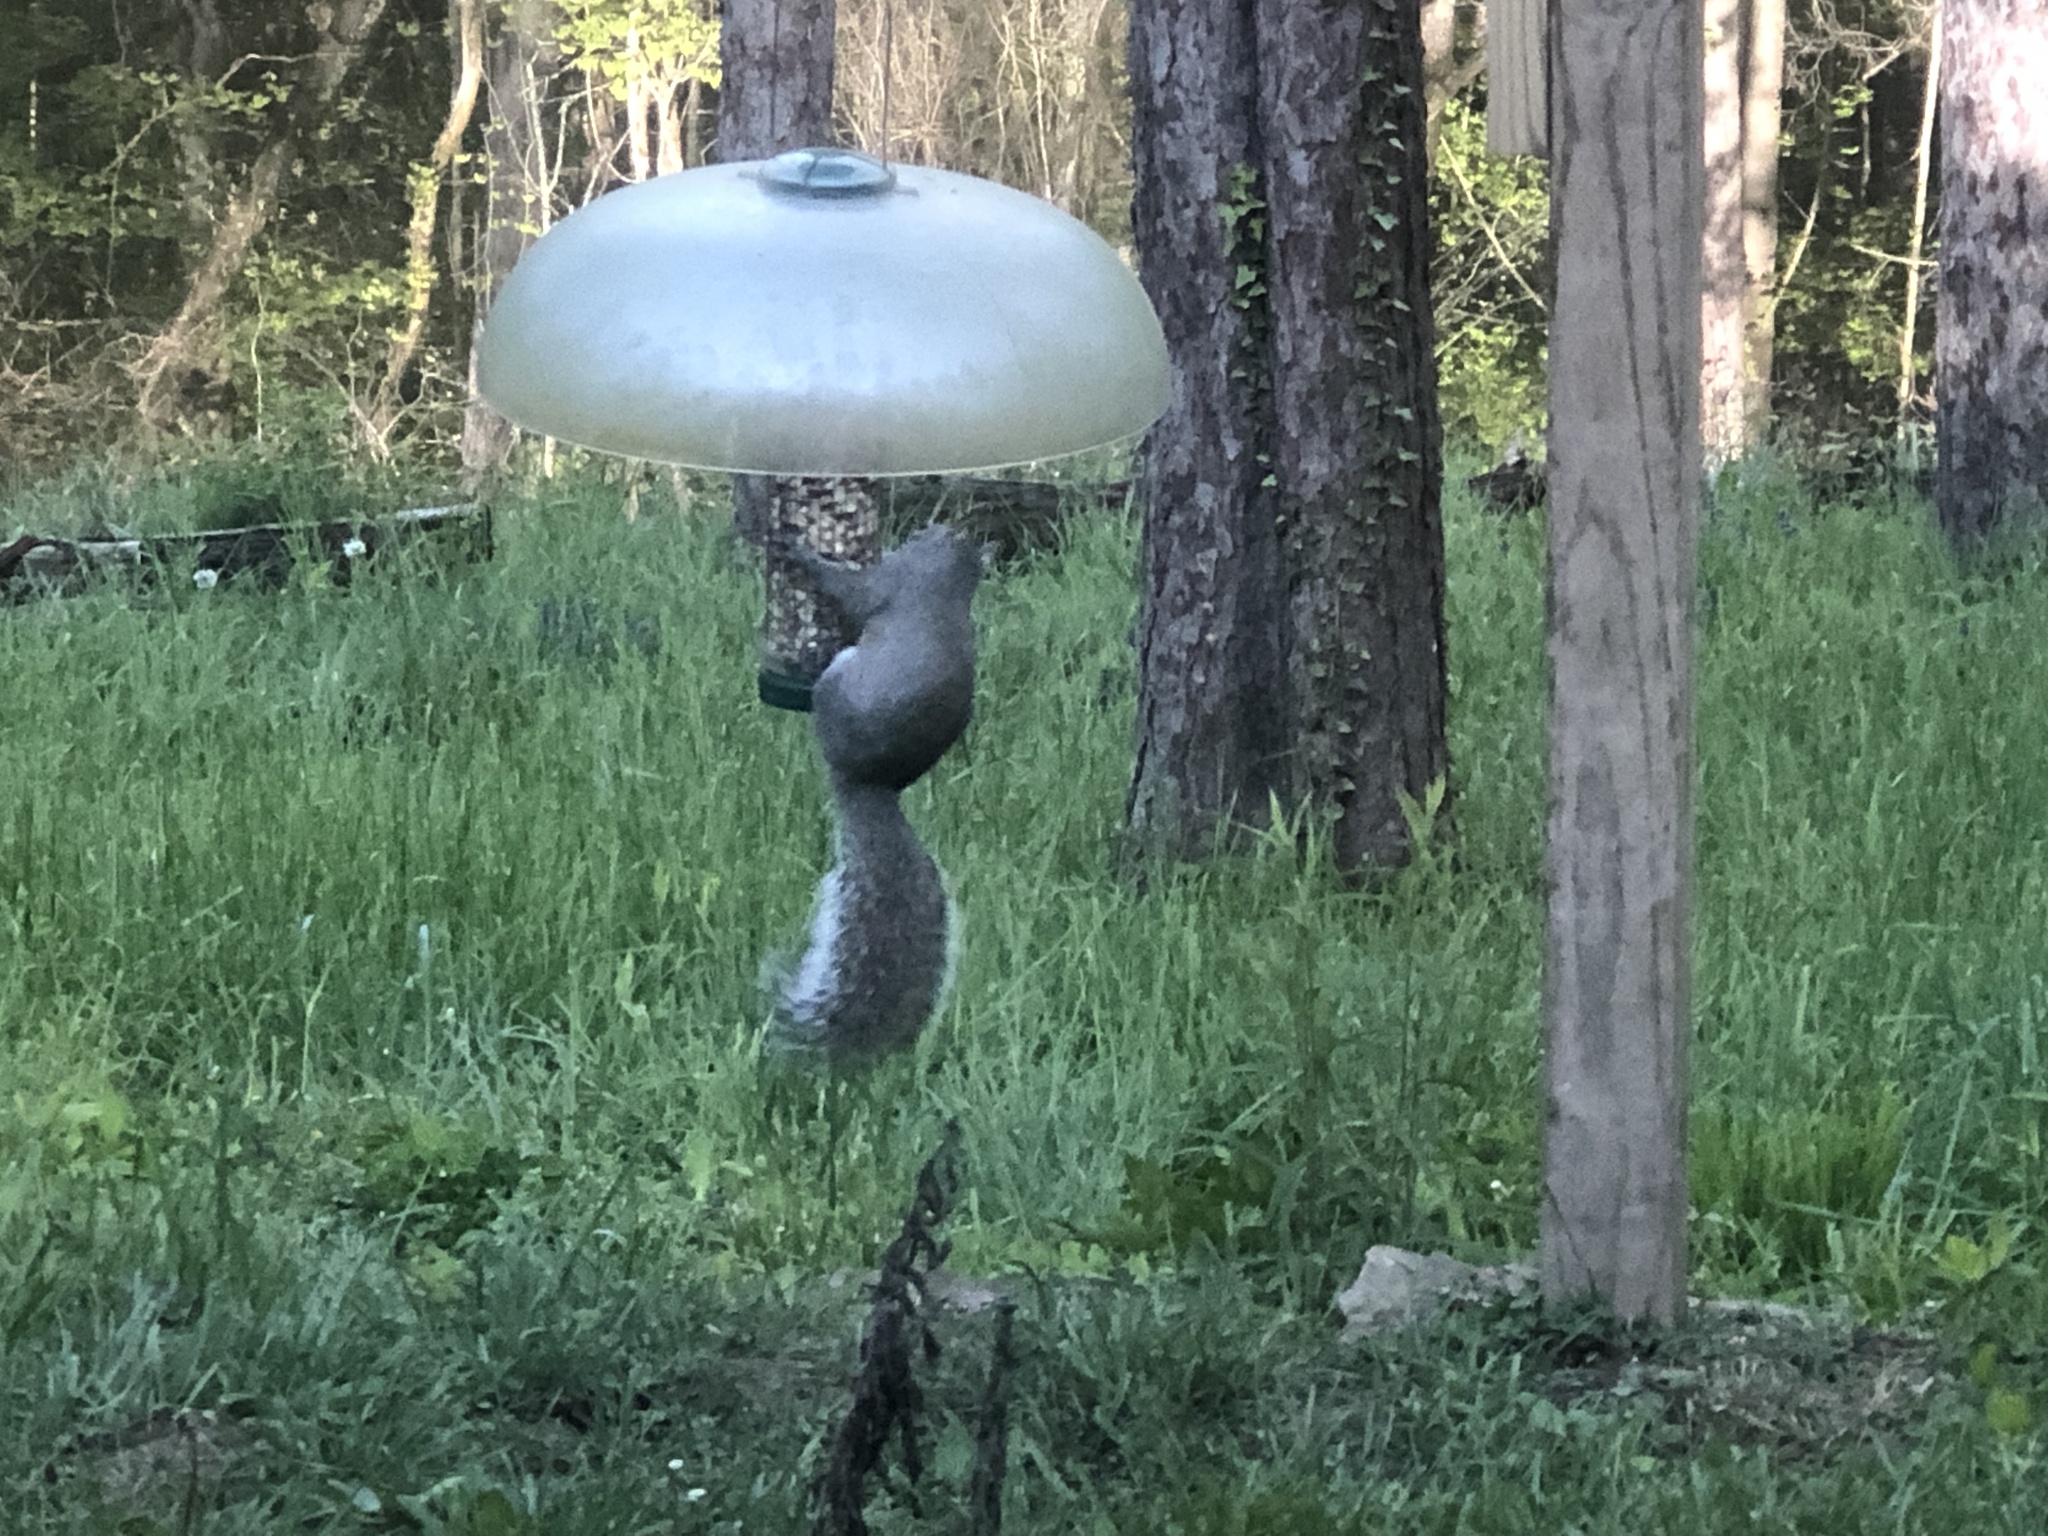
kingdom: Animalia
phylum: Chordata
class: Mammalia
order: Rodentia
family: Sciuridae
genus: Sciurus
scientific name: Sciurus carolinensis
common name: Eastern gray squirrel
